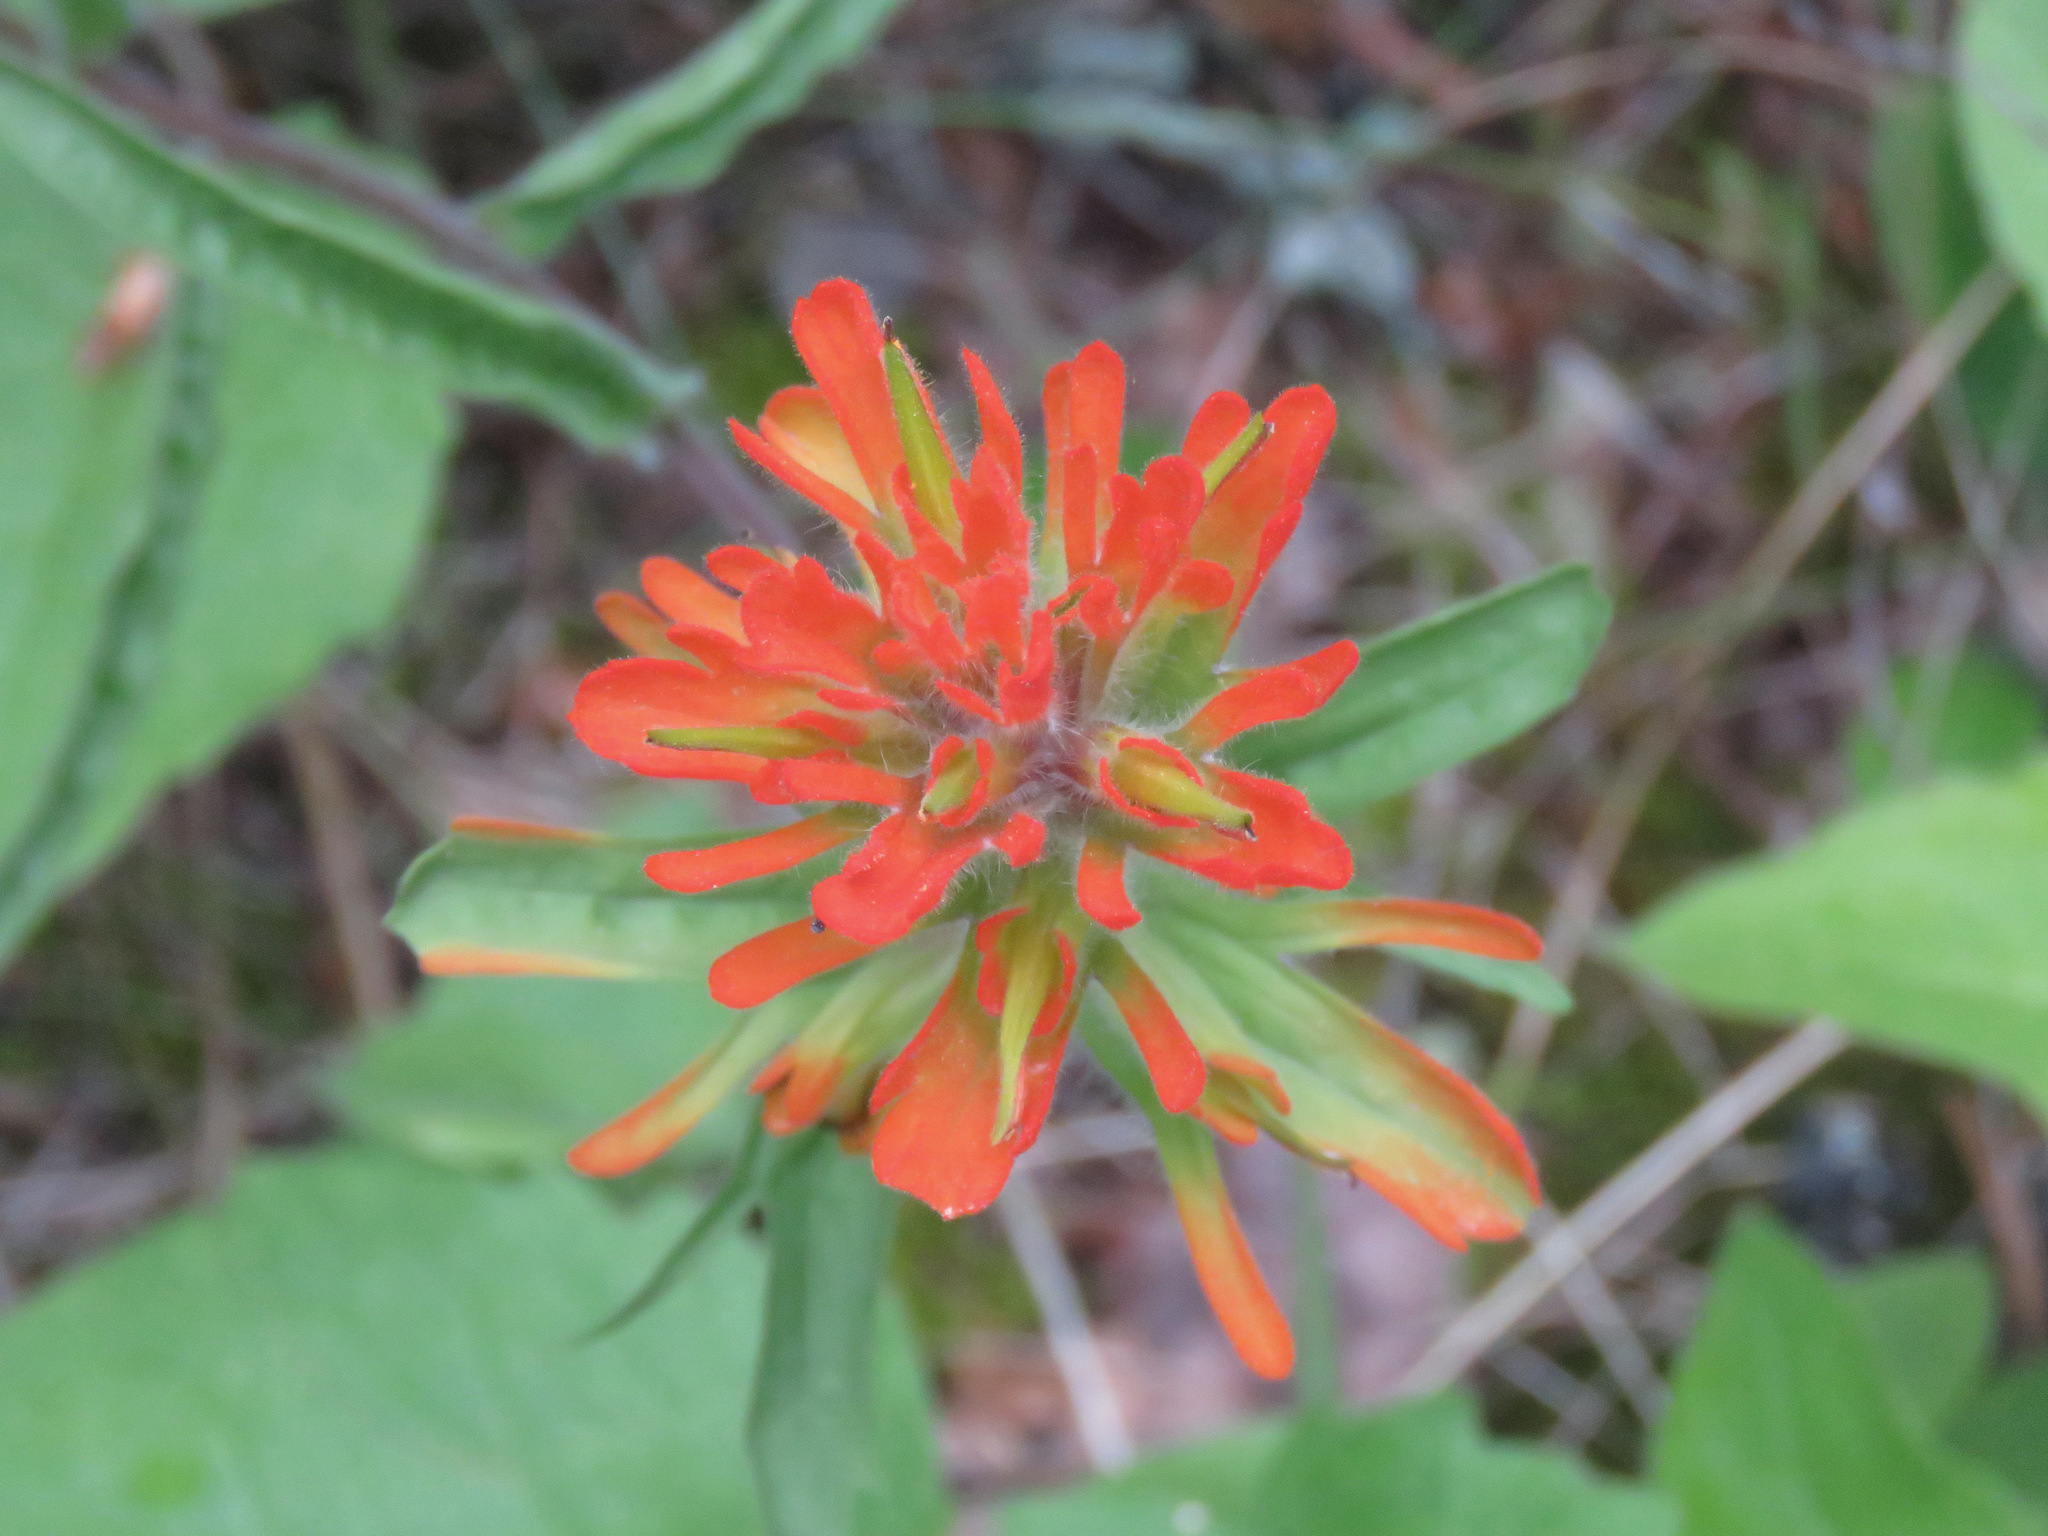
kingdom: Plantae
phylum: Tracheophyta
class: Magnoliopsida
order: Lamiales
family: Orobanchaceae
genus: Castilleja
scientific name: Castilleja hispida
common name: Bristly paintbrush
